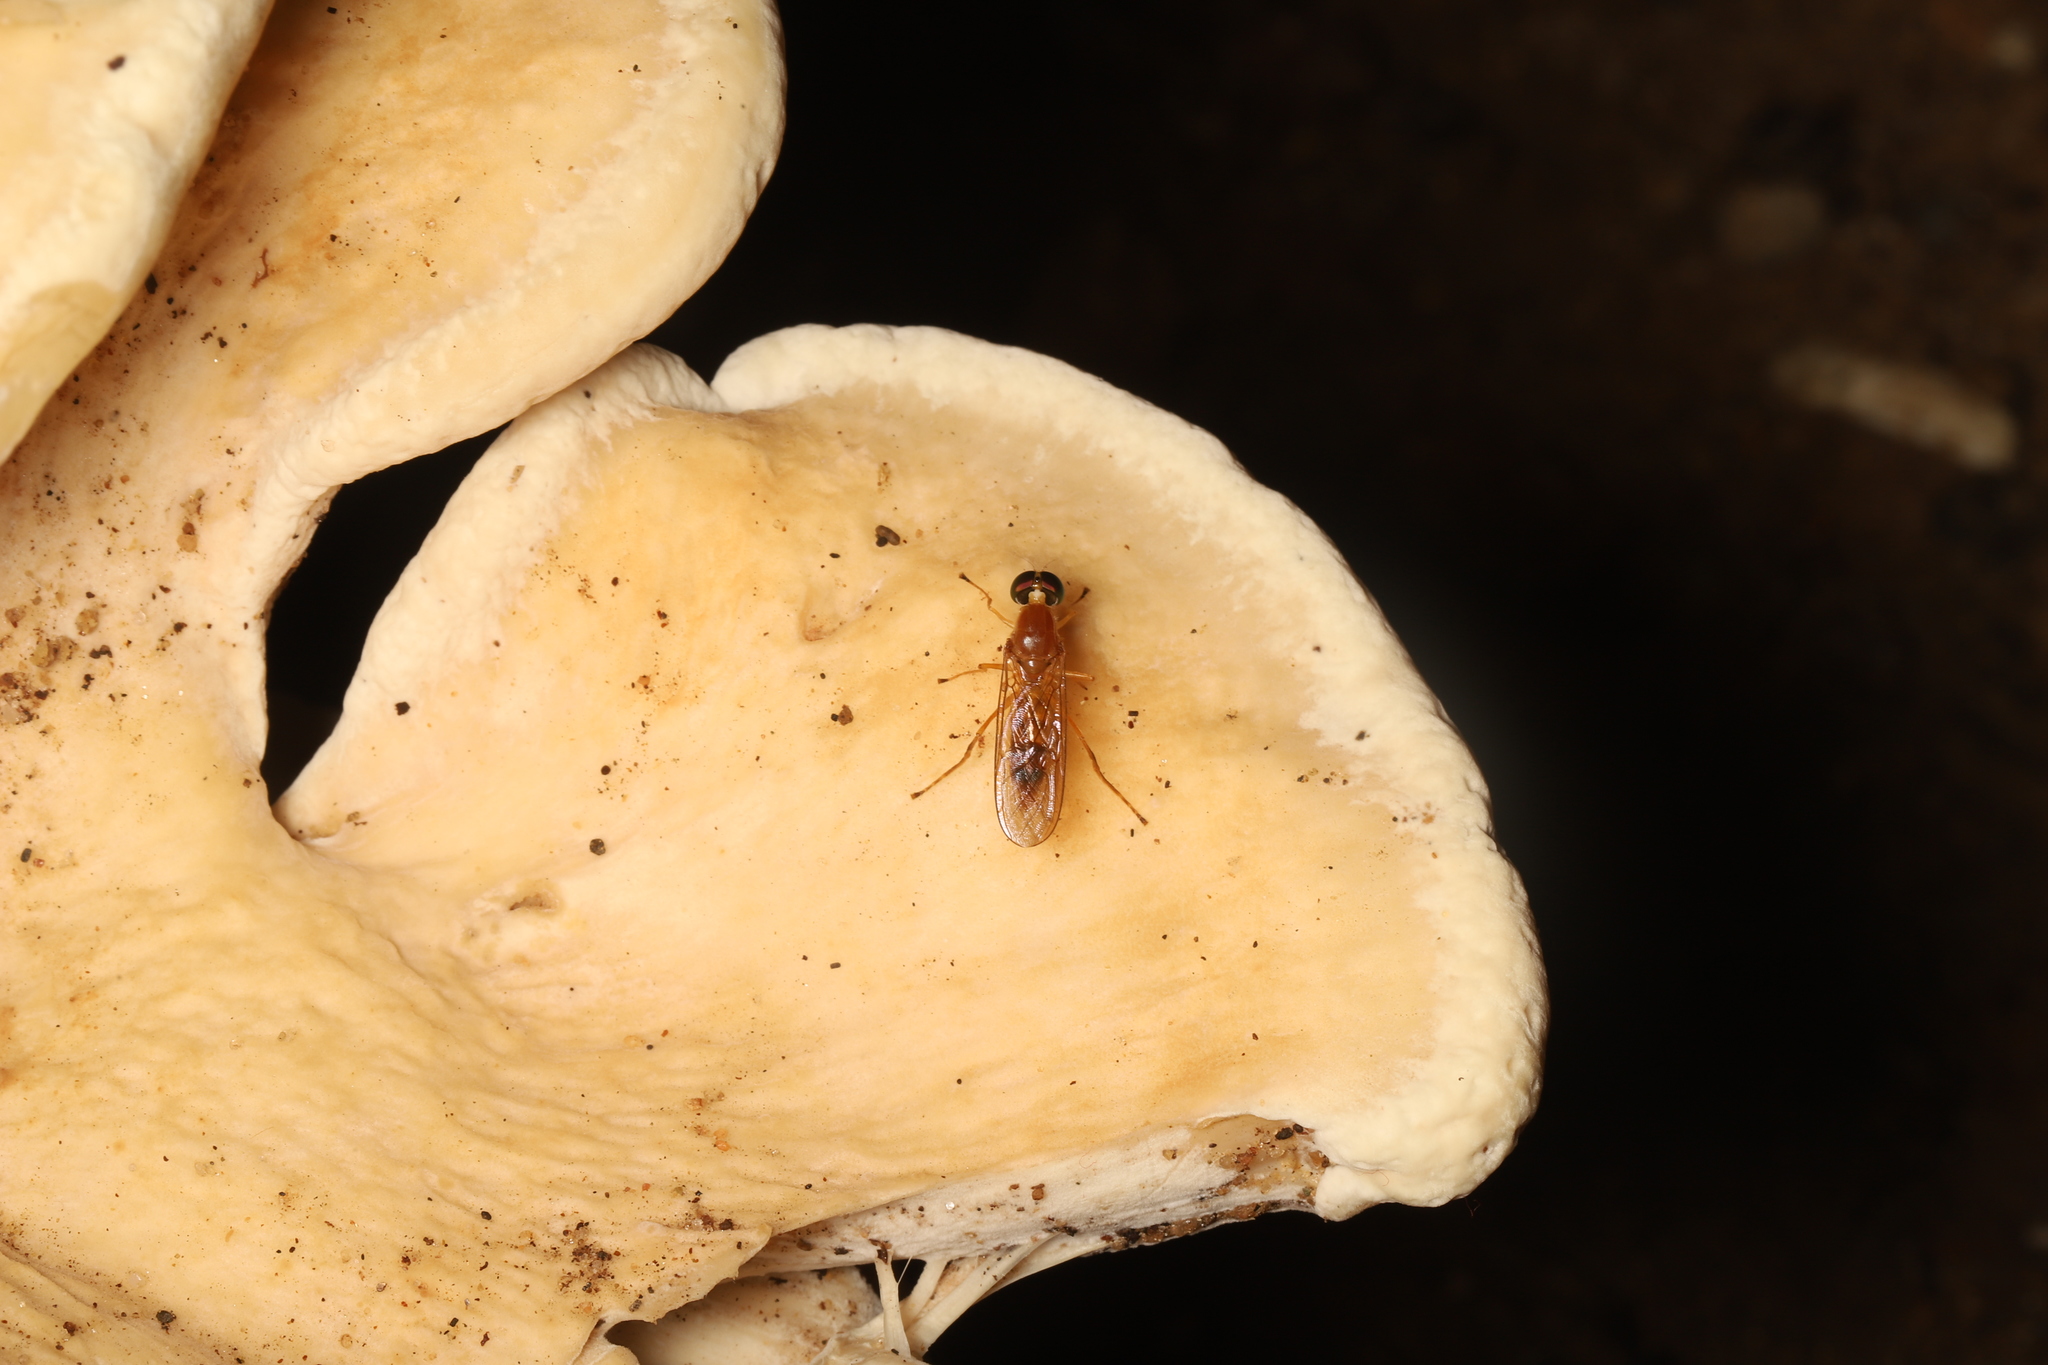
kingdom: Animalia
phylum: Arthropoda
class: Insecta
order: Diptera
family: Stratiomyidae
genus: Ptecticus
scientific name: Ptecticus trivittatus
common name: Compost fly
